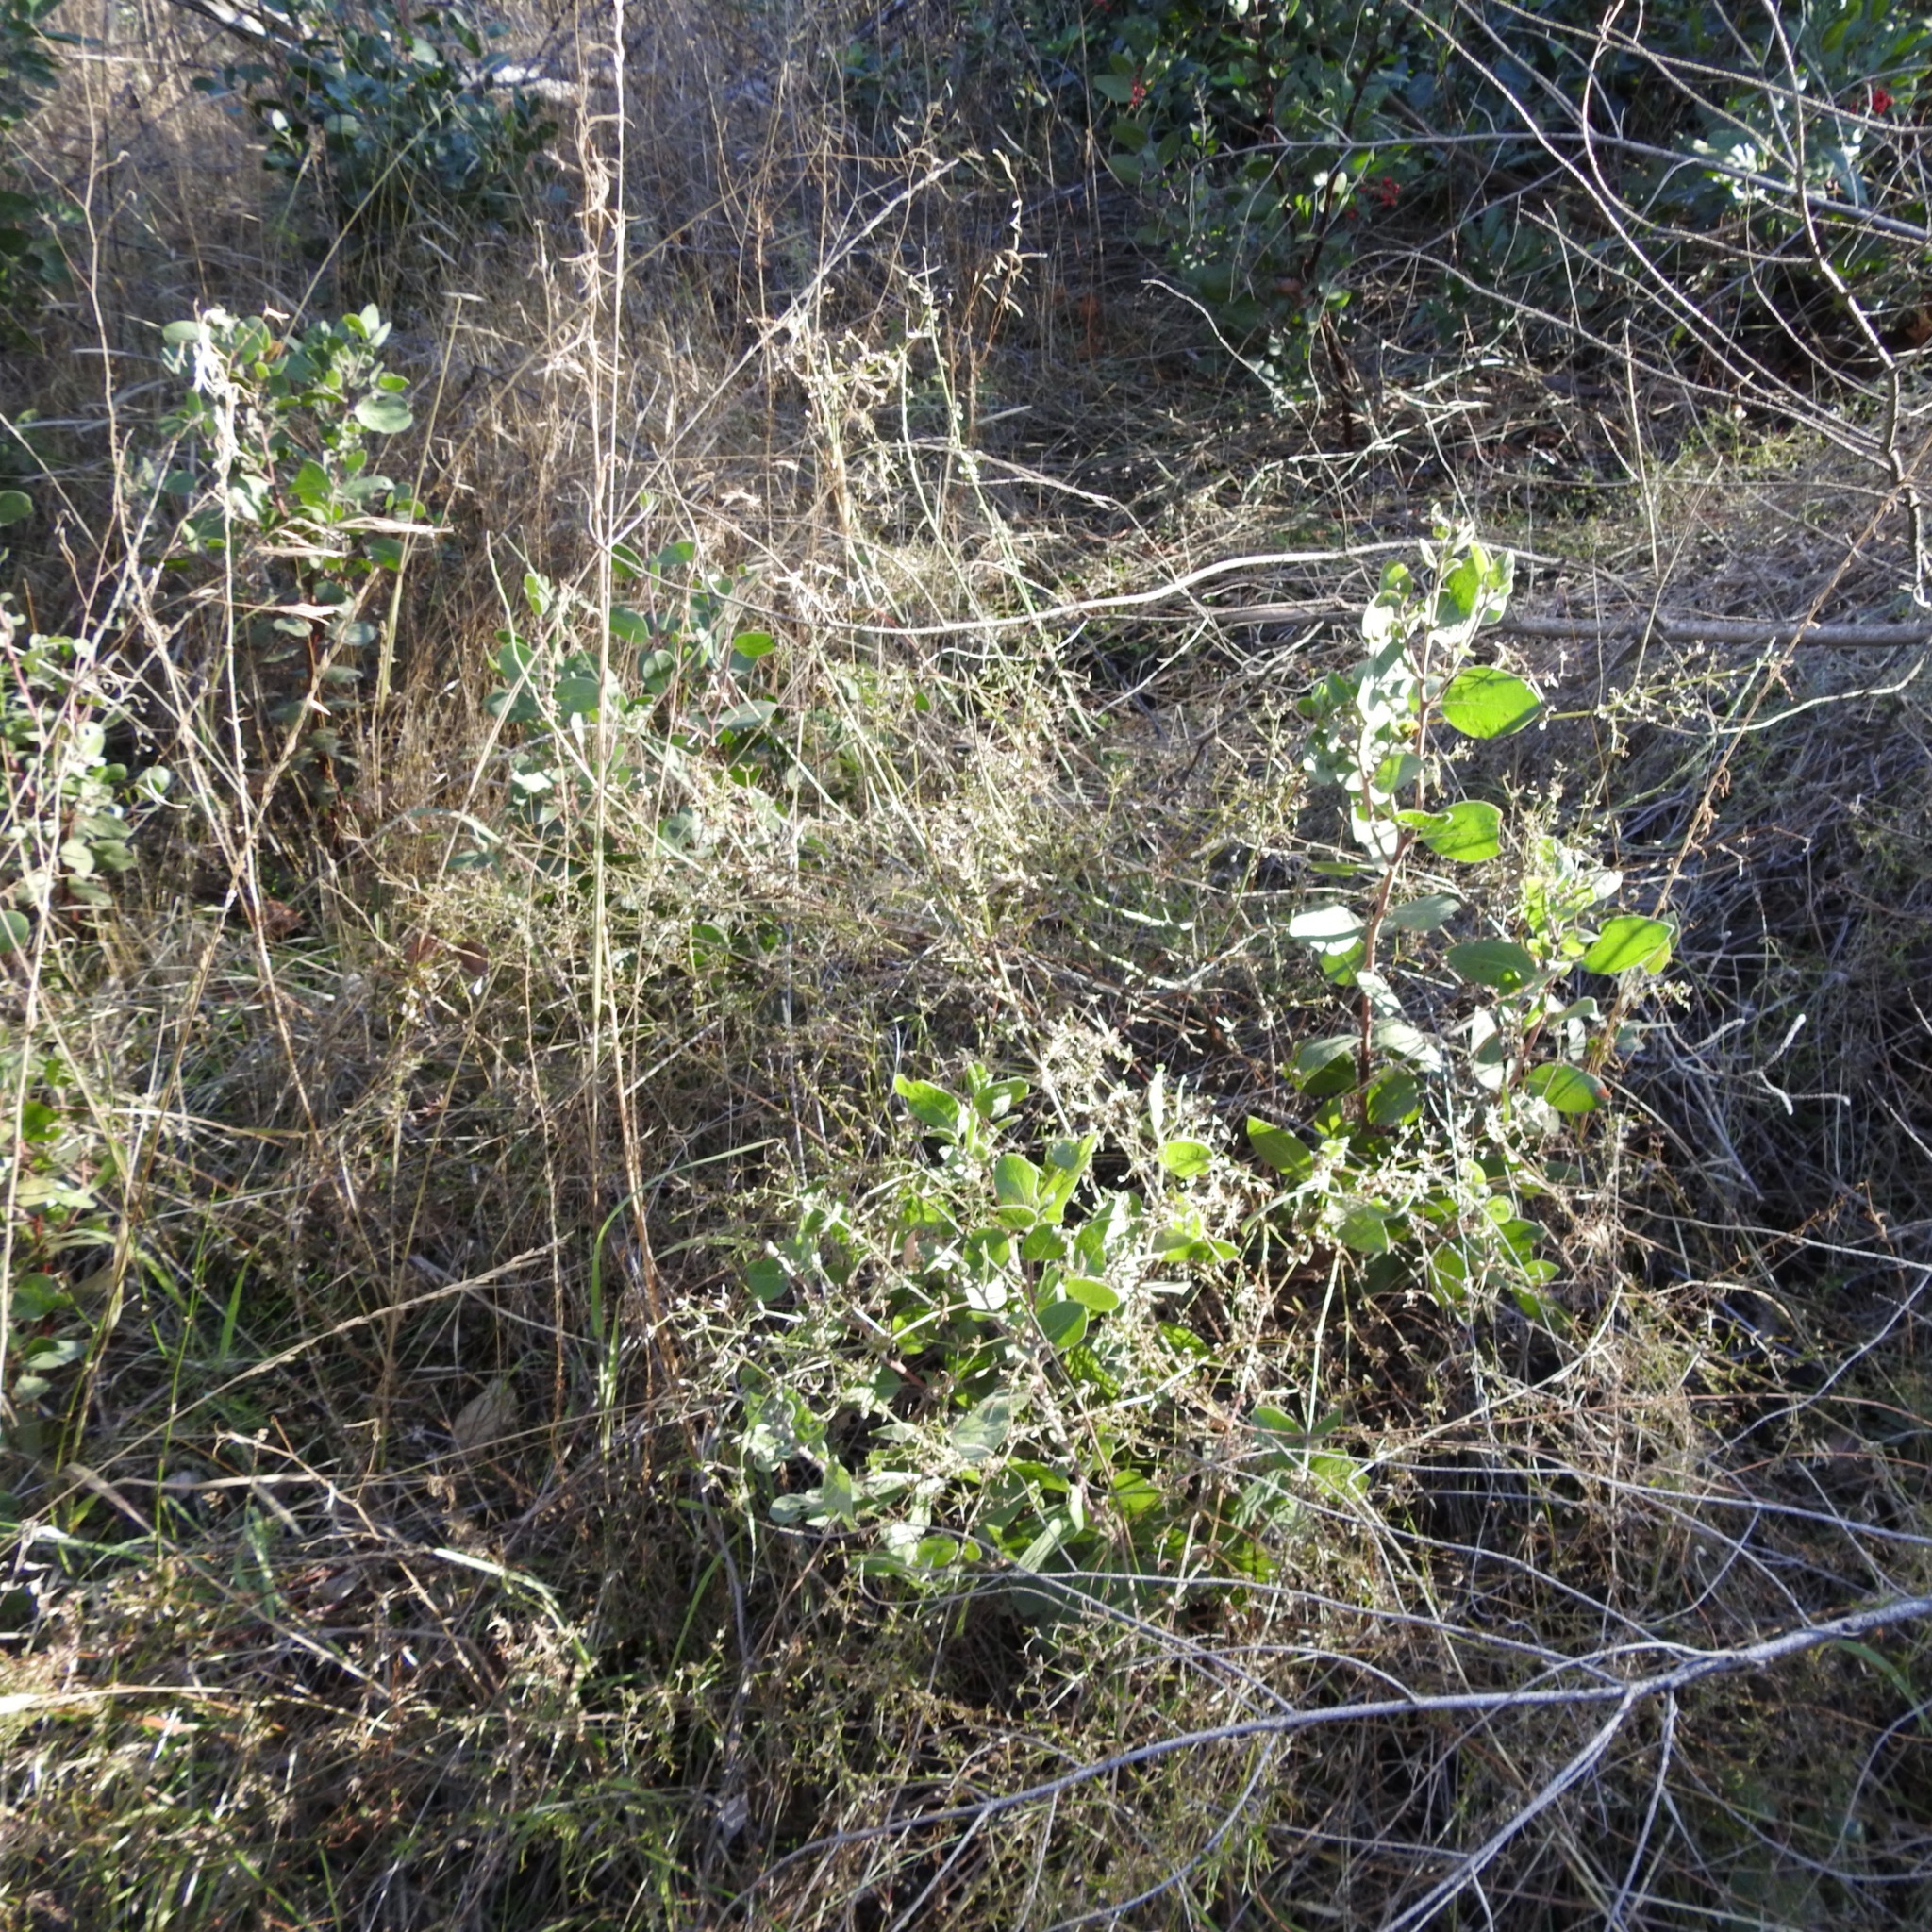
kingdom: Plantae
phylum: Tracheophyta
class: Magnoliopsida
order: Ericales
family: Ericaceae
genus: Arctostaphylos
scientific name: Arctostaphylos manzanita
